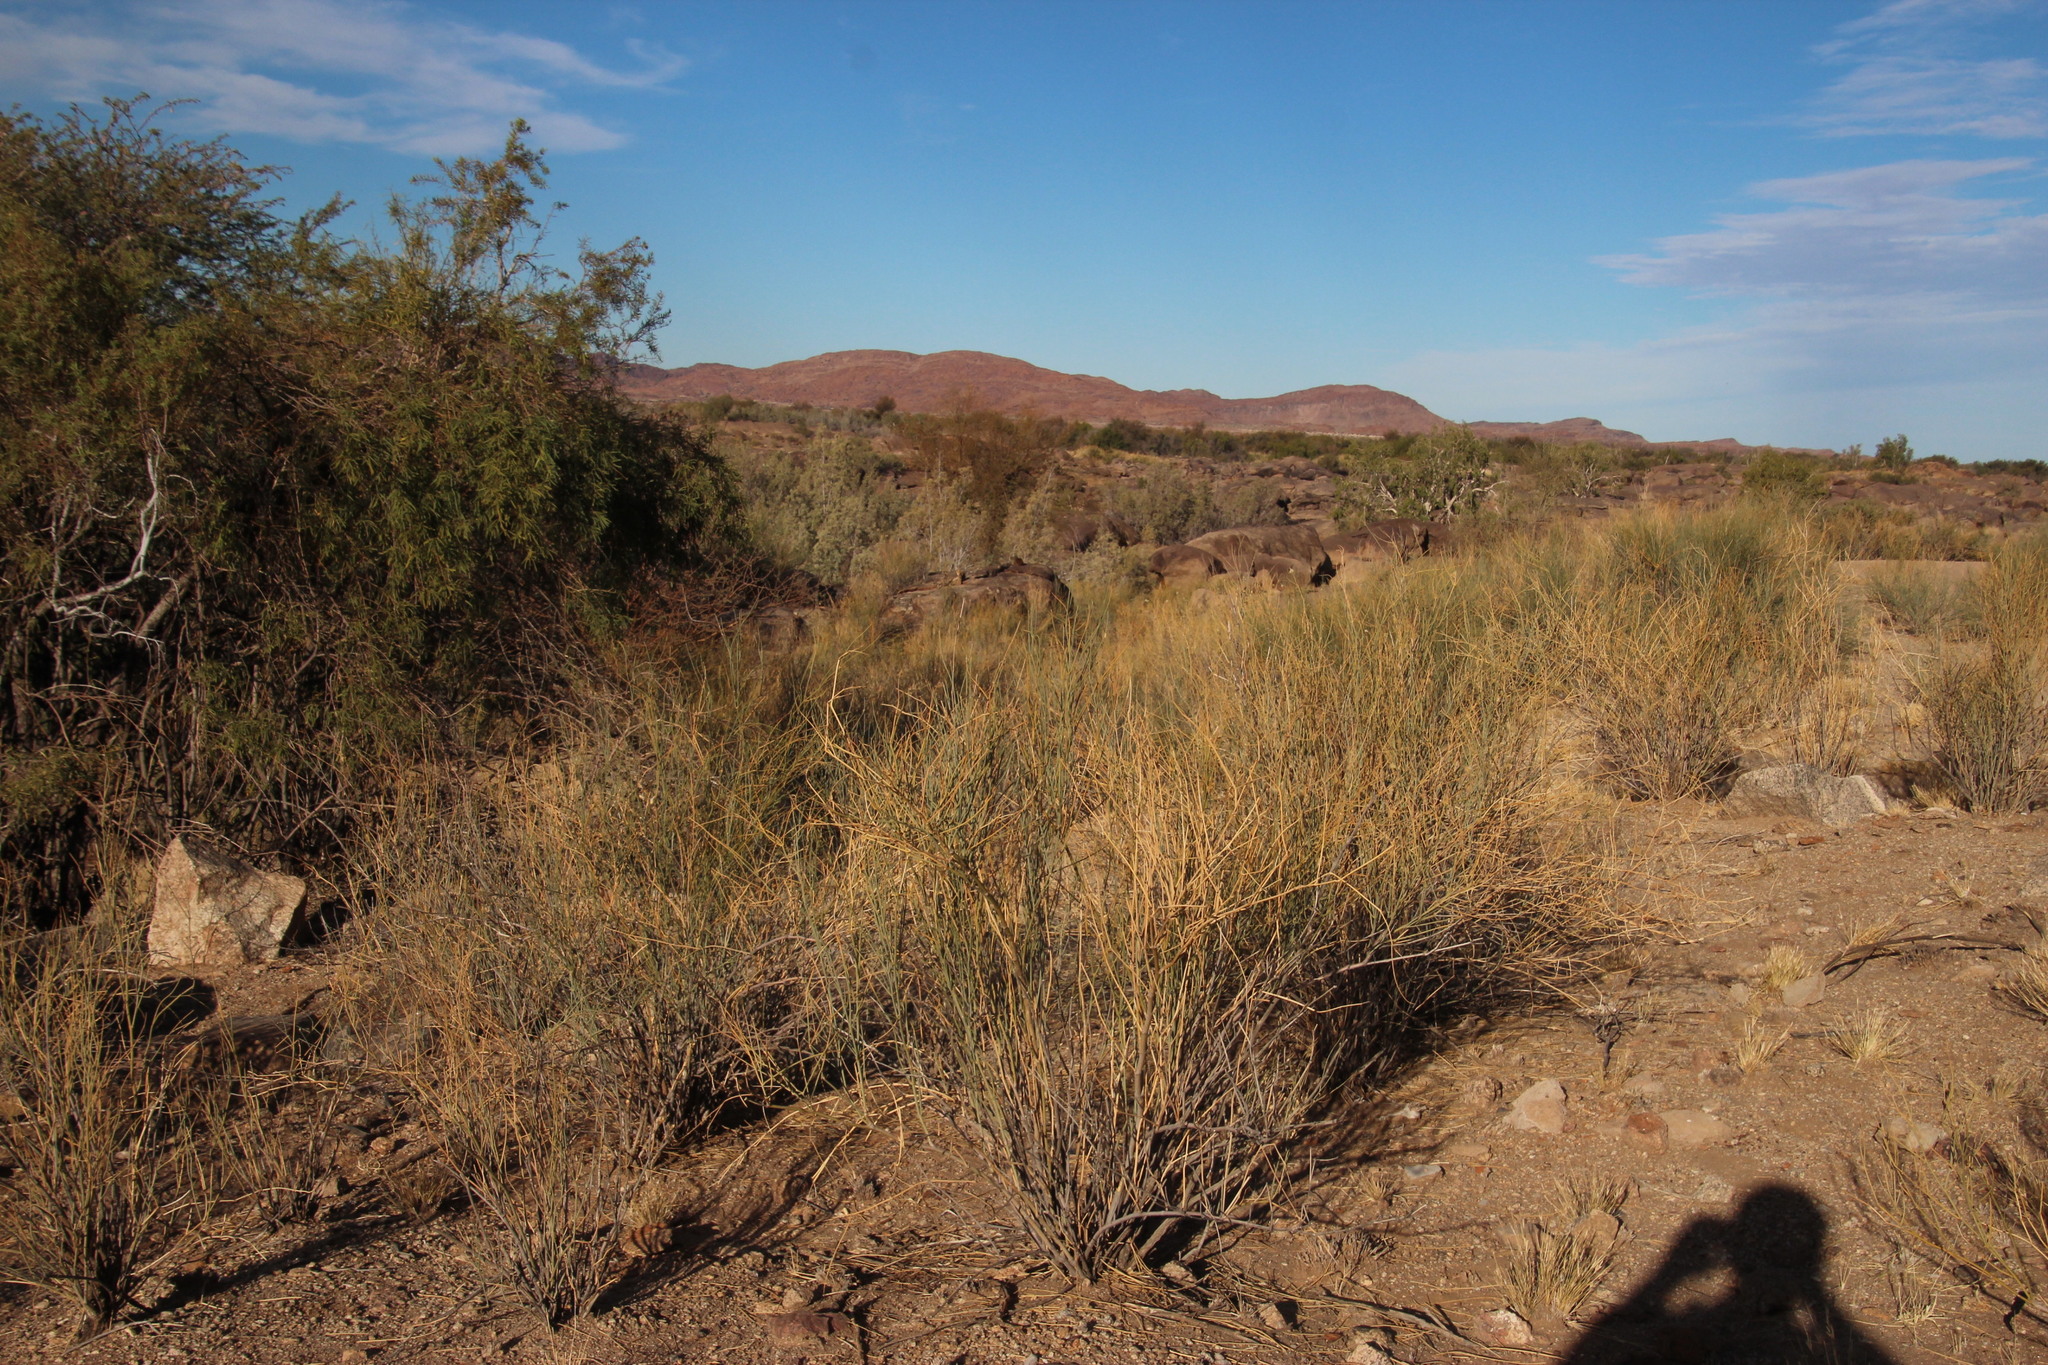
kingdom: Plantae
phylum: Tracheophyta
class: Magnoliopsida
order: Zygophyllales
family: Zygophyllaceae
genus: Sisyndite
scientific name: Sisyndite spartea
